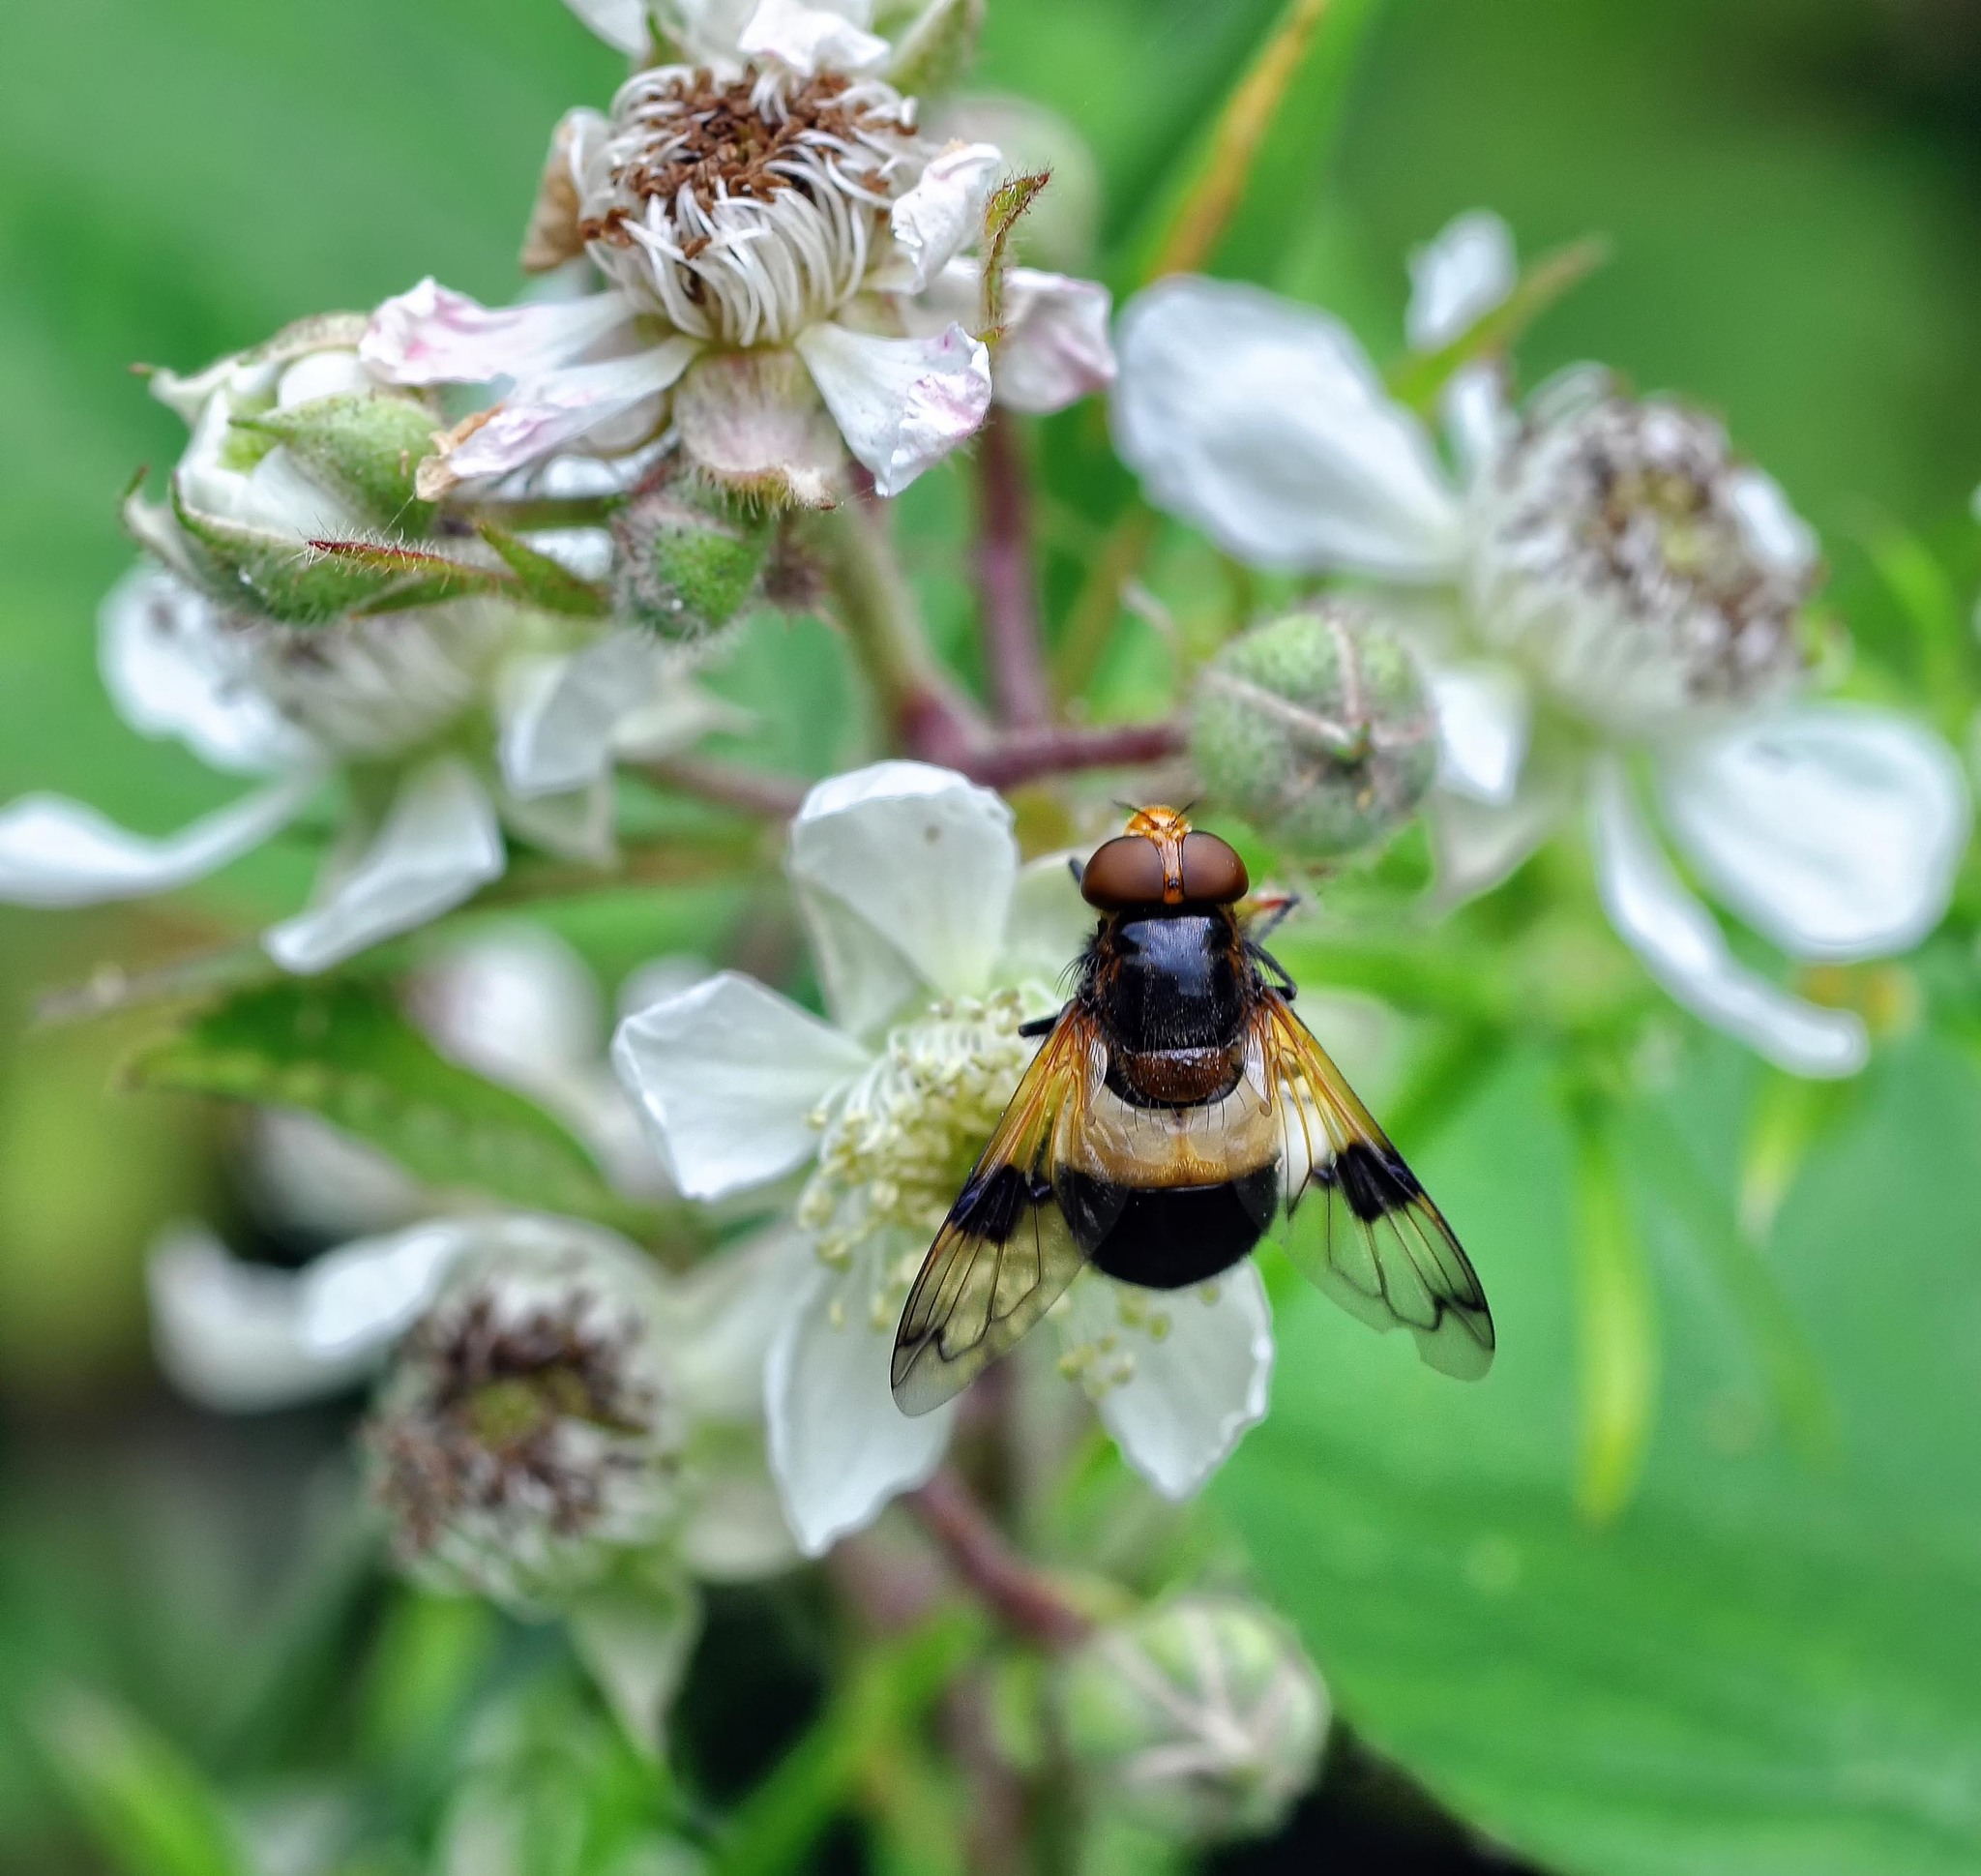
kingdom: Animalia
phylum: Arthropoda
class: Insecta
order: Diptera
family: Syrphidae
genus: Volucella
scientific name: Volucella pellucens
